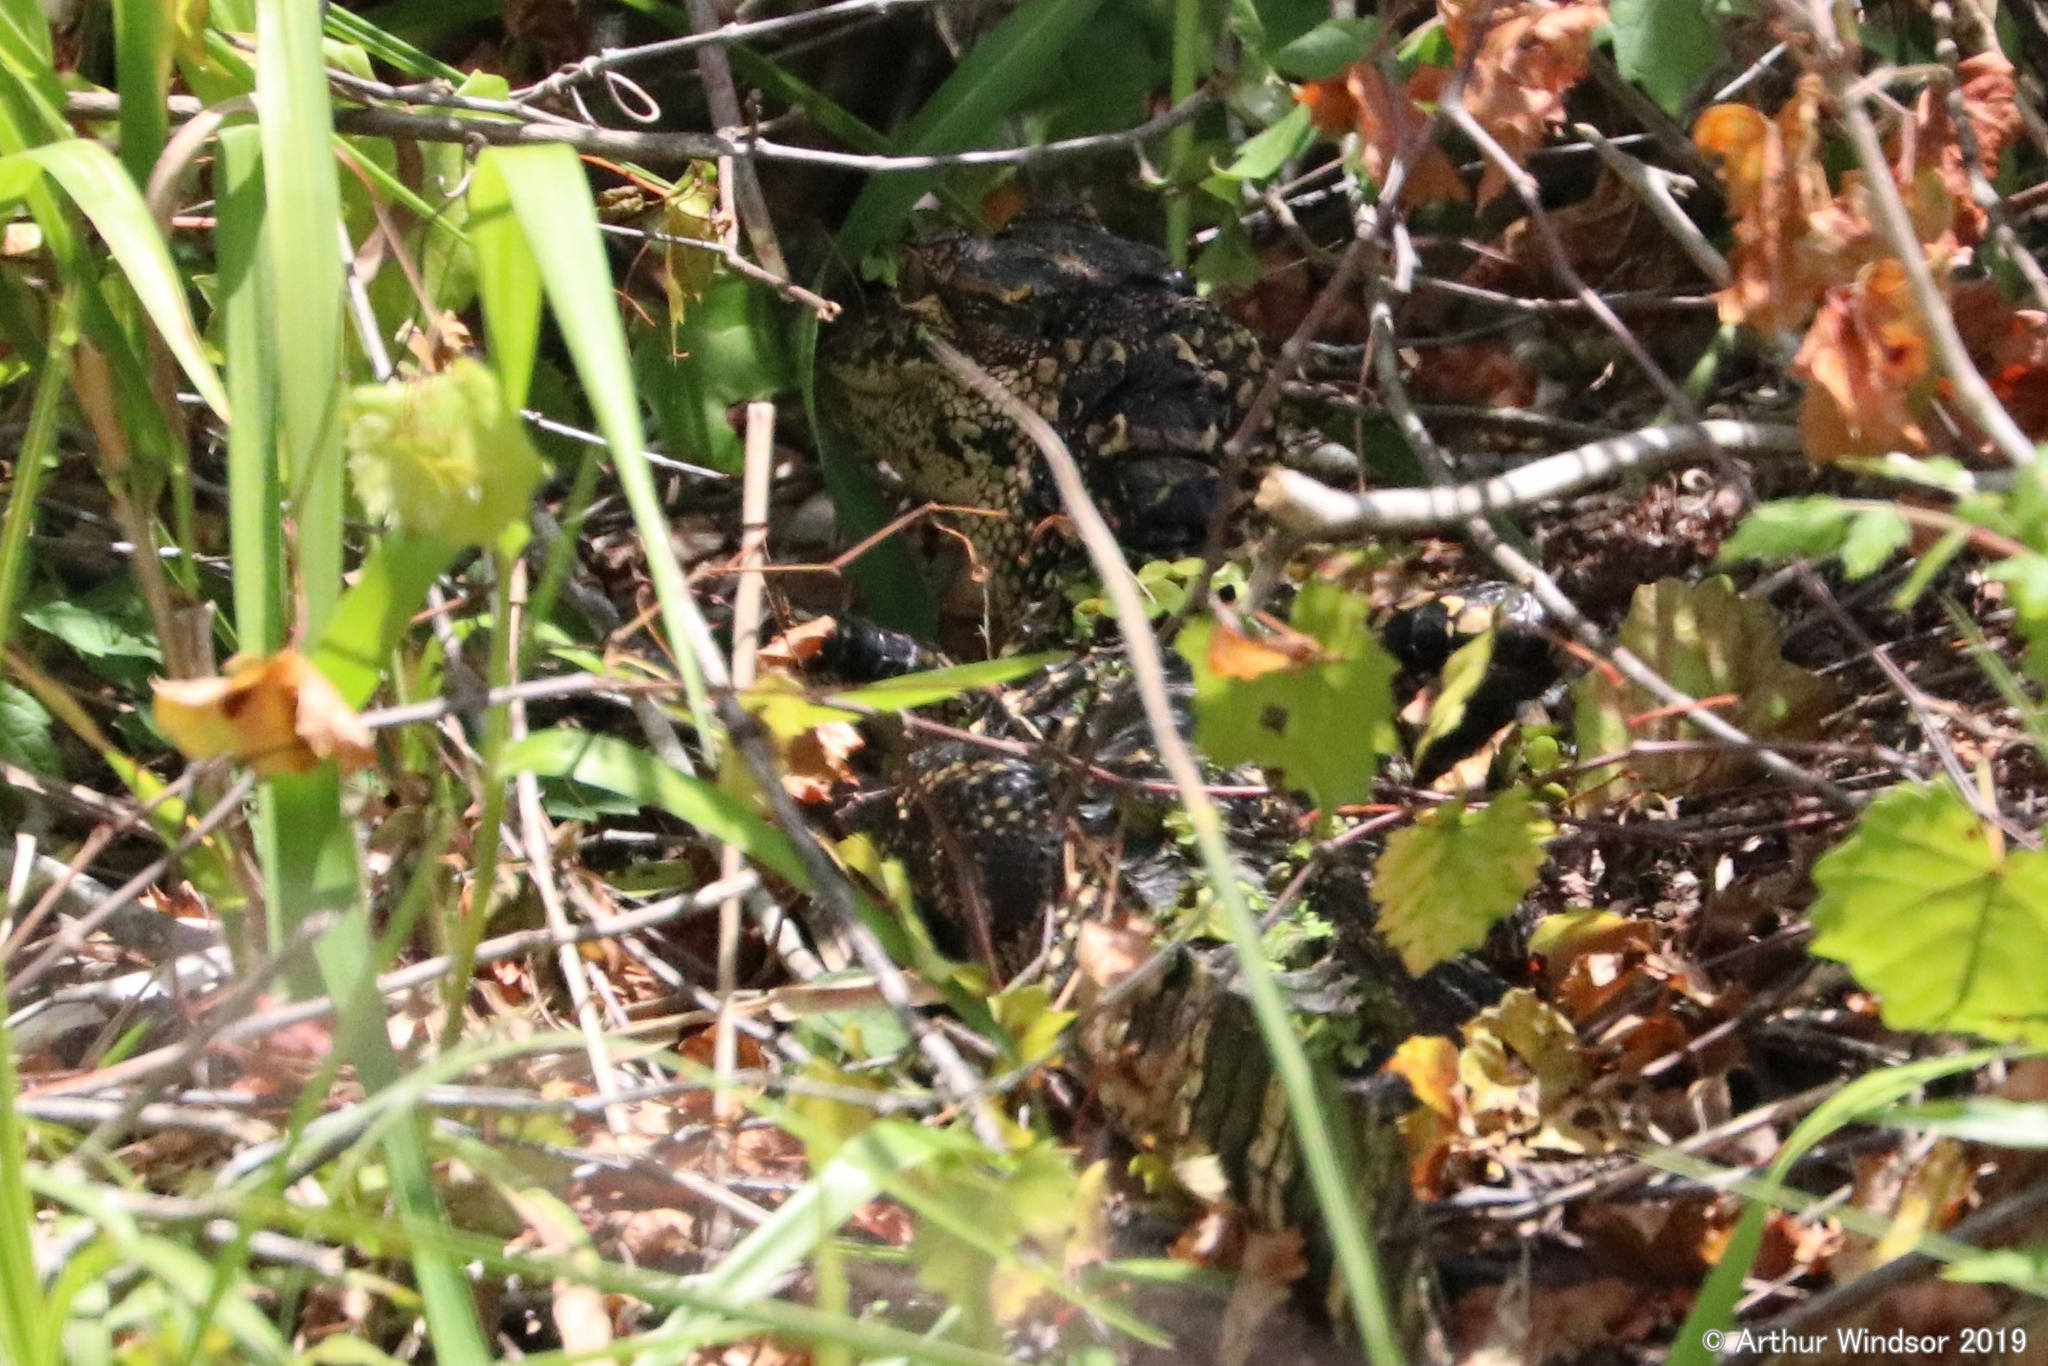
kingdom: Animalia
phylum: Chordata
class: Crocodylia
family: Alligatoridae
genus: Alligator
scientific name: Alligator mississippiensis
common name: American alligator
